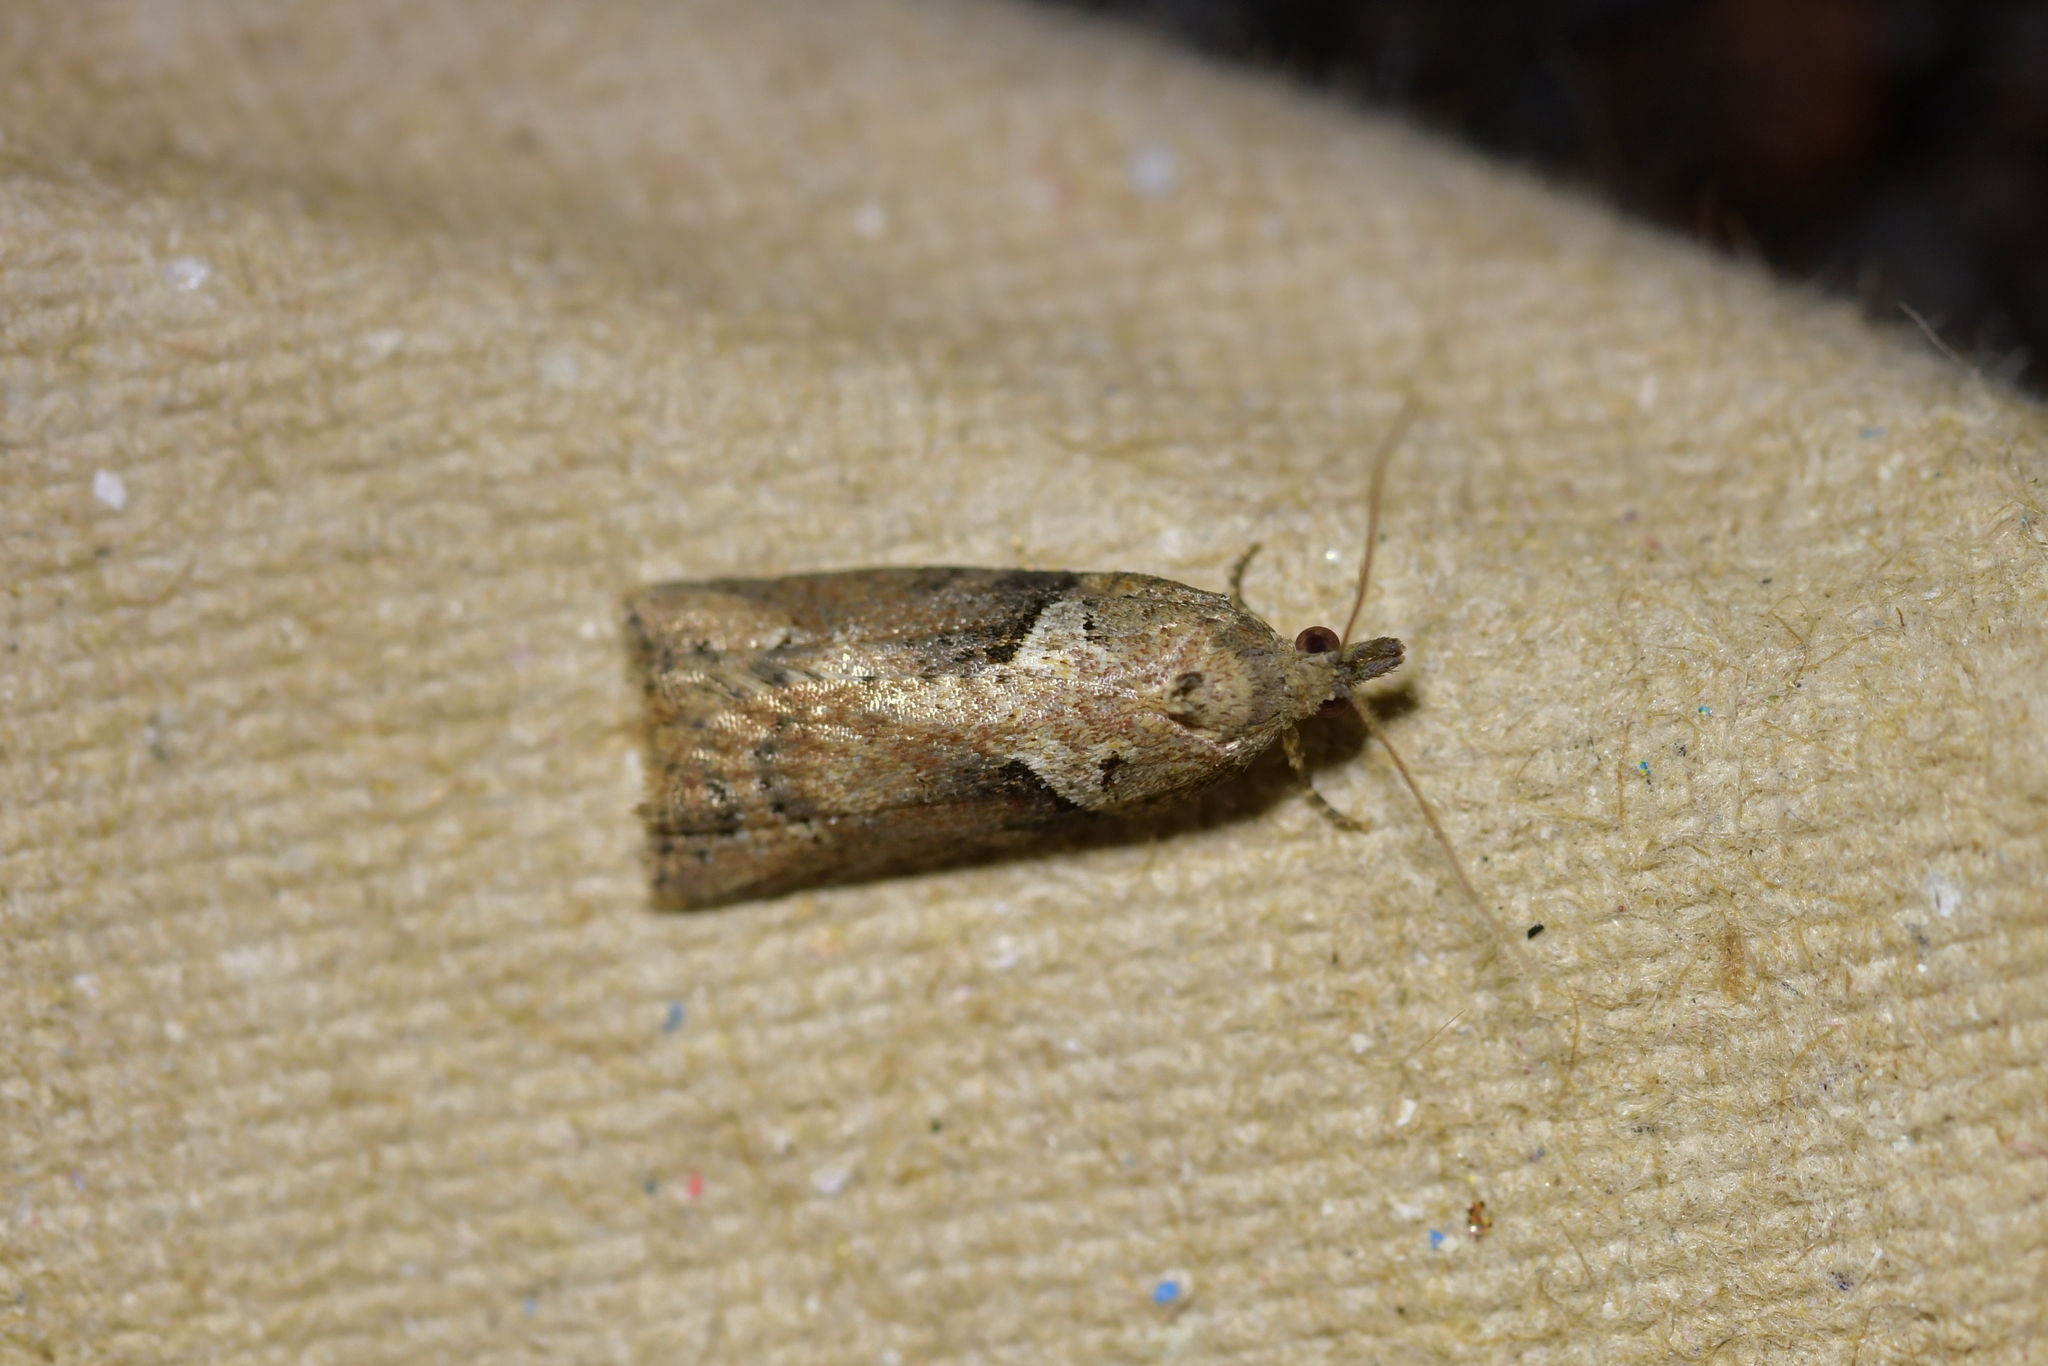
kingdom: Animalia
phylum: Arthropoda
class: Insecta
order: Lepidoptera
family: Tortricidae
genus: Harmologa
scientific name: Harmologa oblongana
